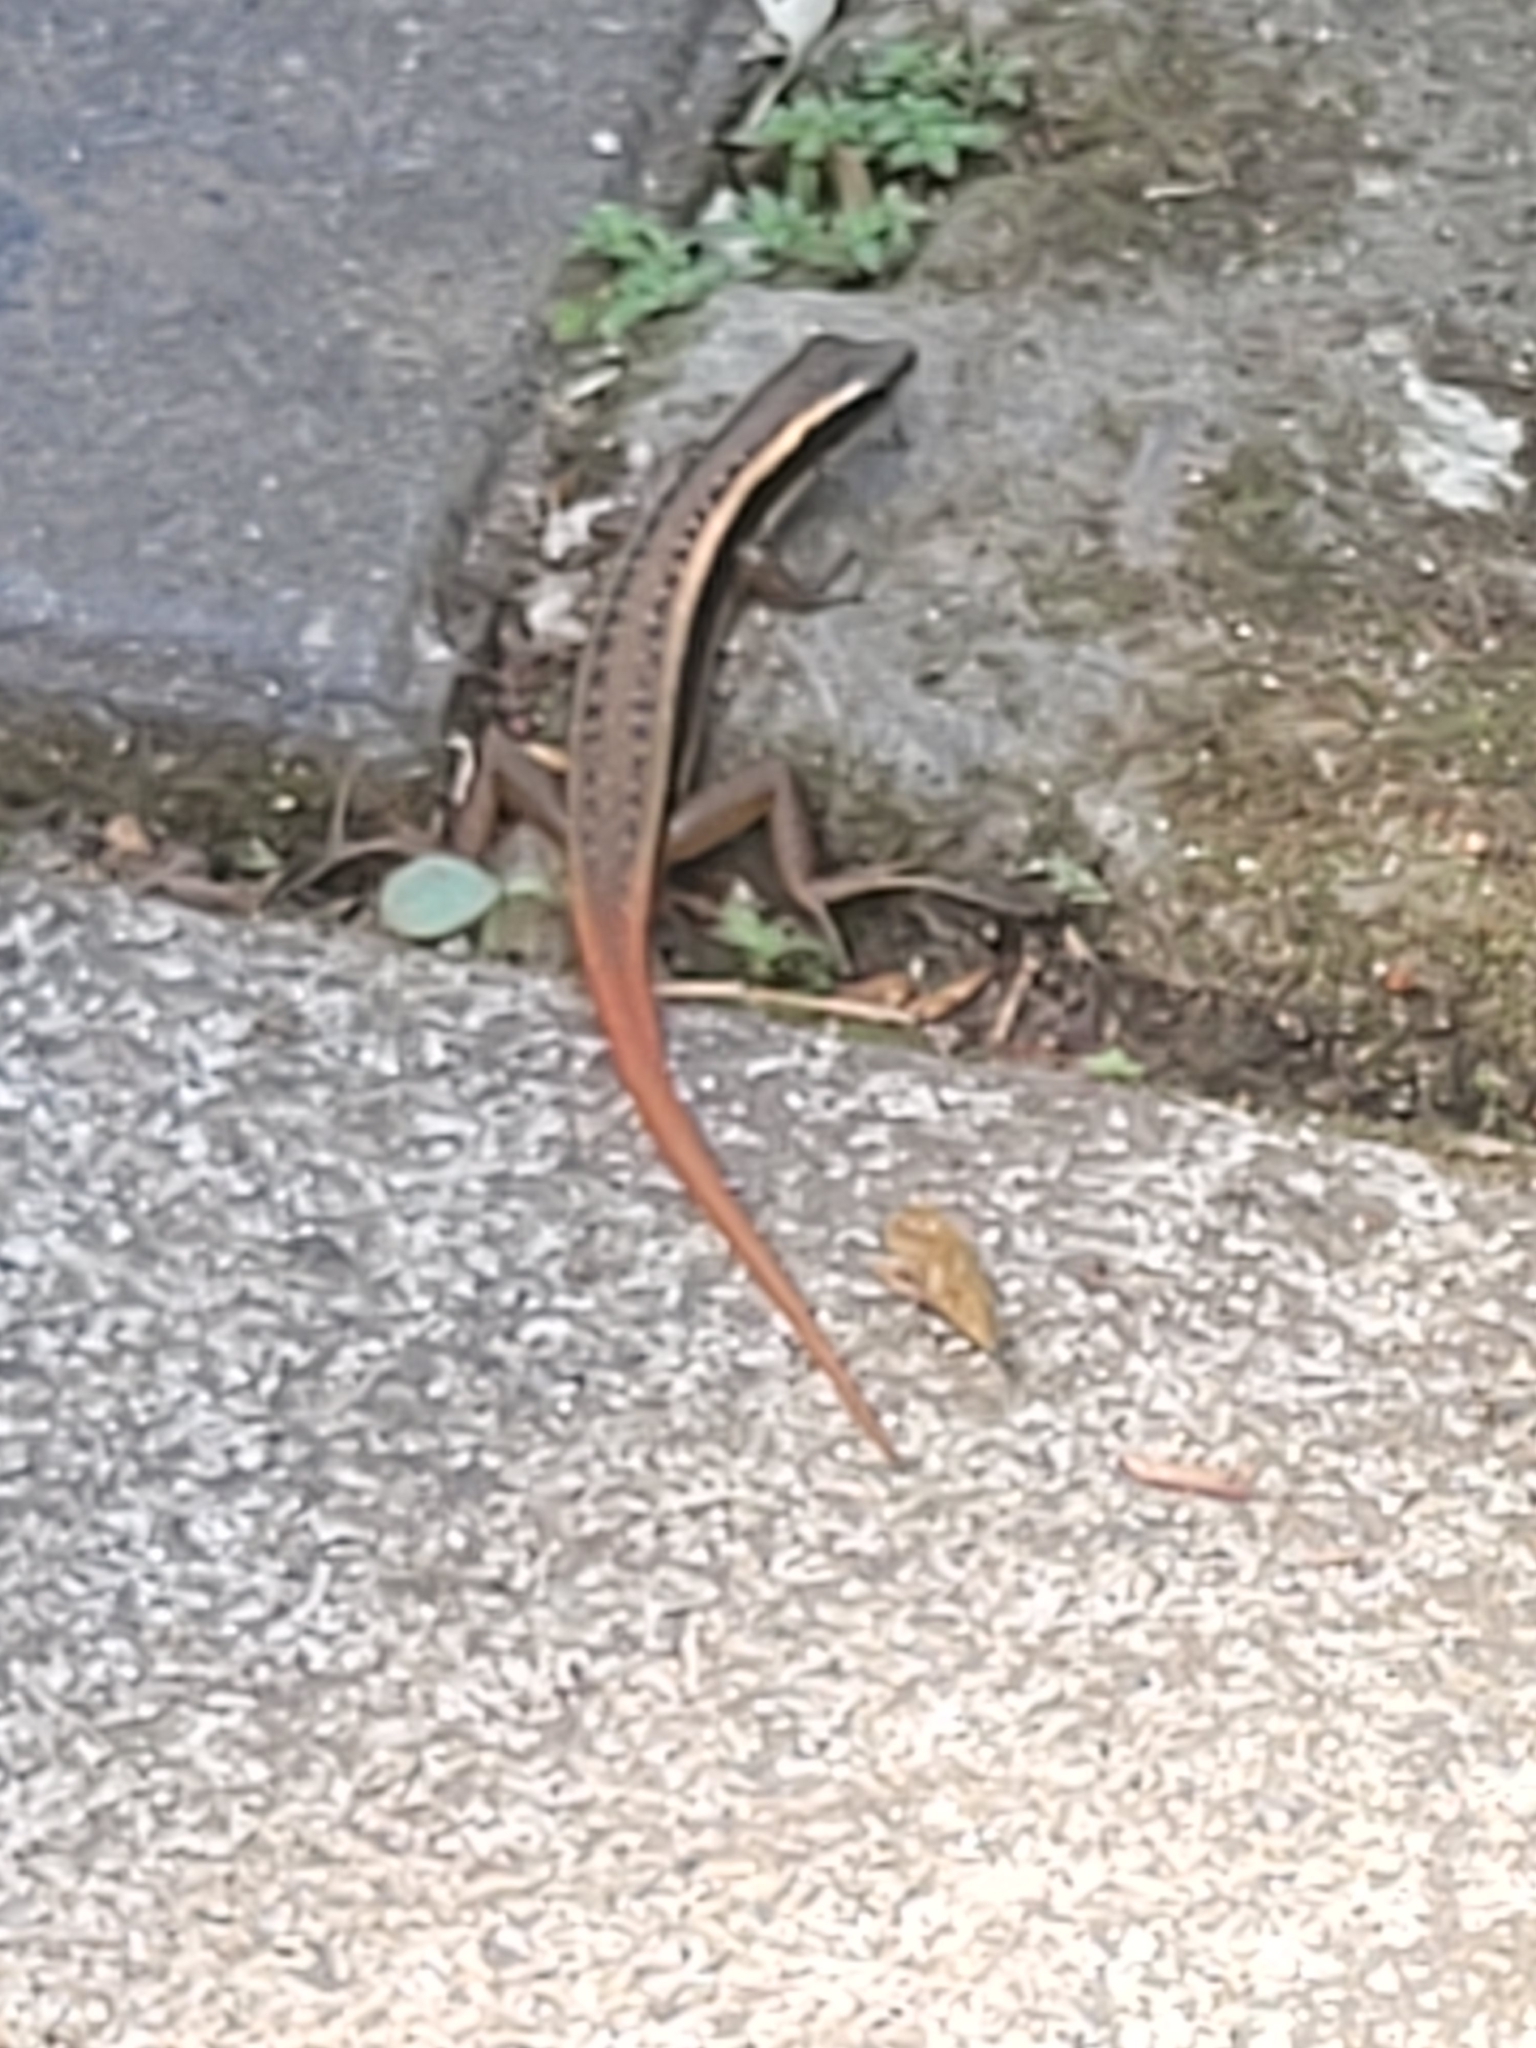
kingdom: Animalia
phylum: Chordata
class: Squamata
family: Scincidae
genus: Sphenomorphus
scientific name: Sphenomorphus dussumieri
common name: Dussumier's forest skink
